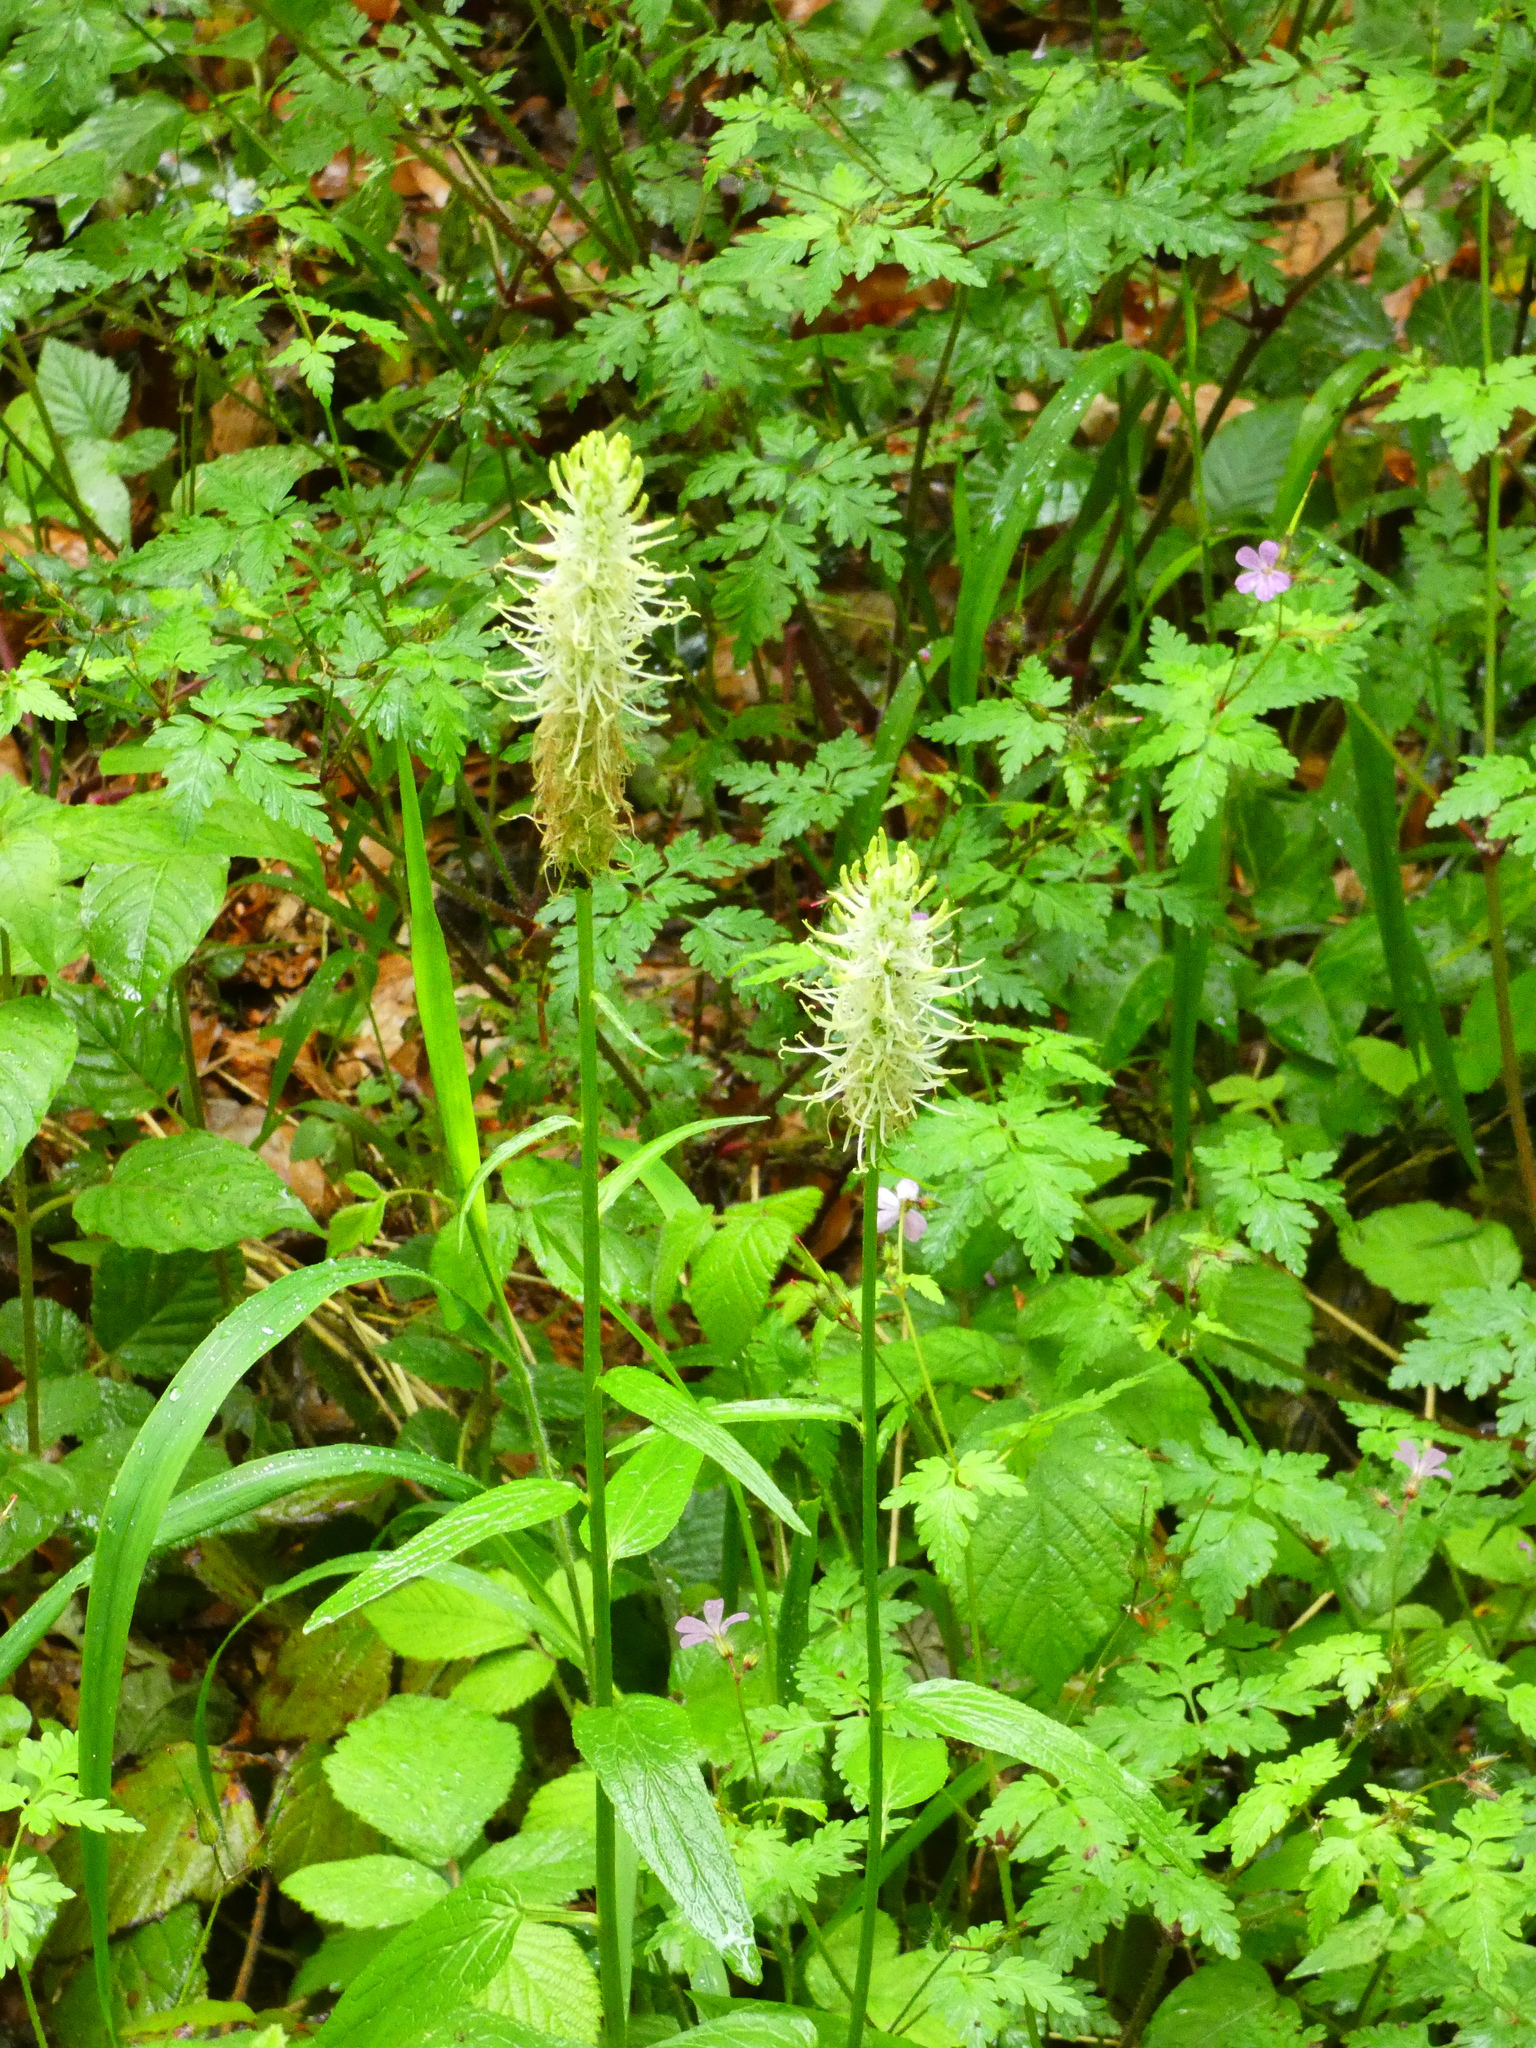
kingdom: Plantae
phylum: Tracheophyta
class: Magnoliopsida
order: Asterales
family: Campanulaceae
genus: Phyteuma
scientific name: Phyteuma spicatum
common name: Spiked rampion
